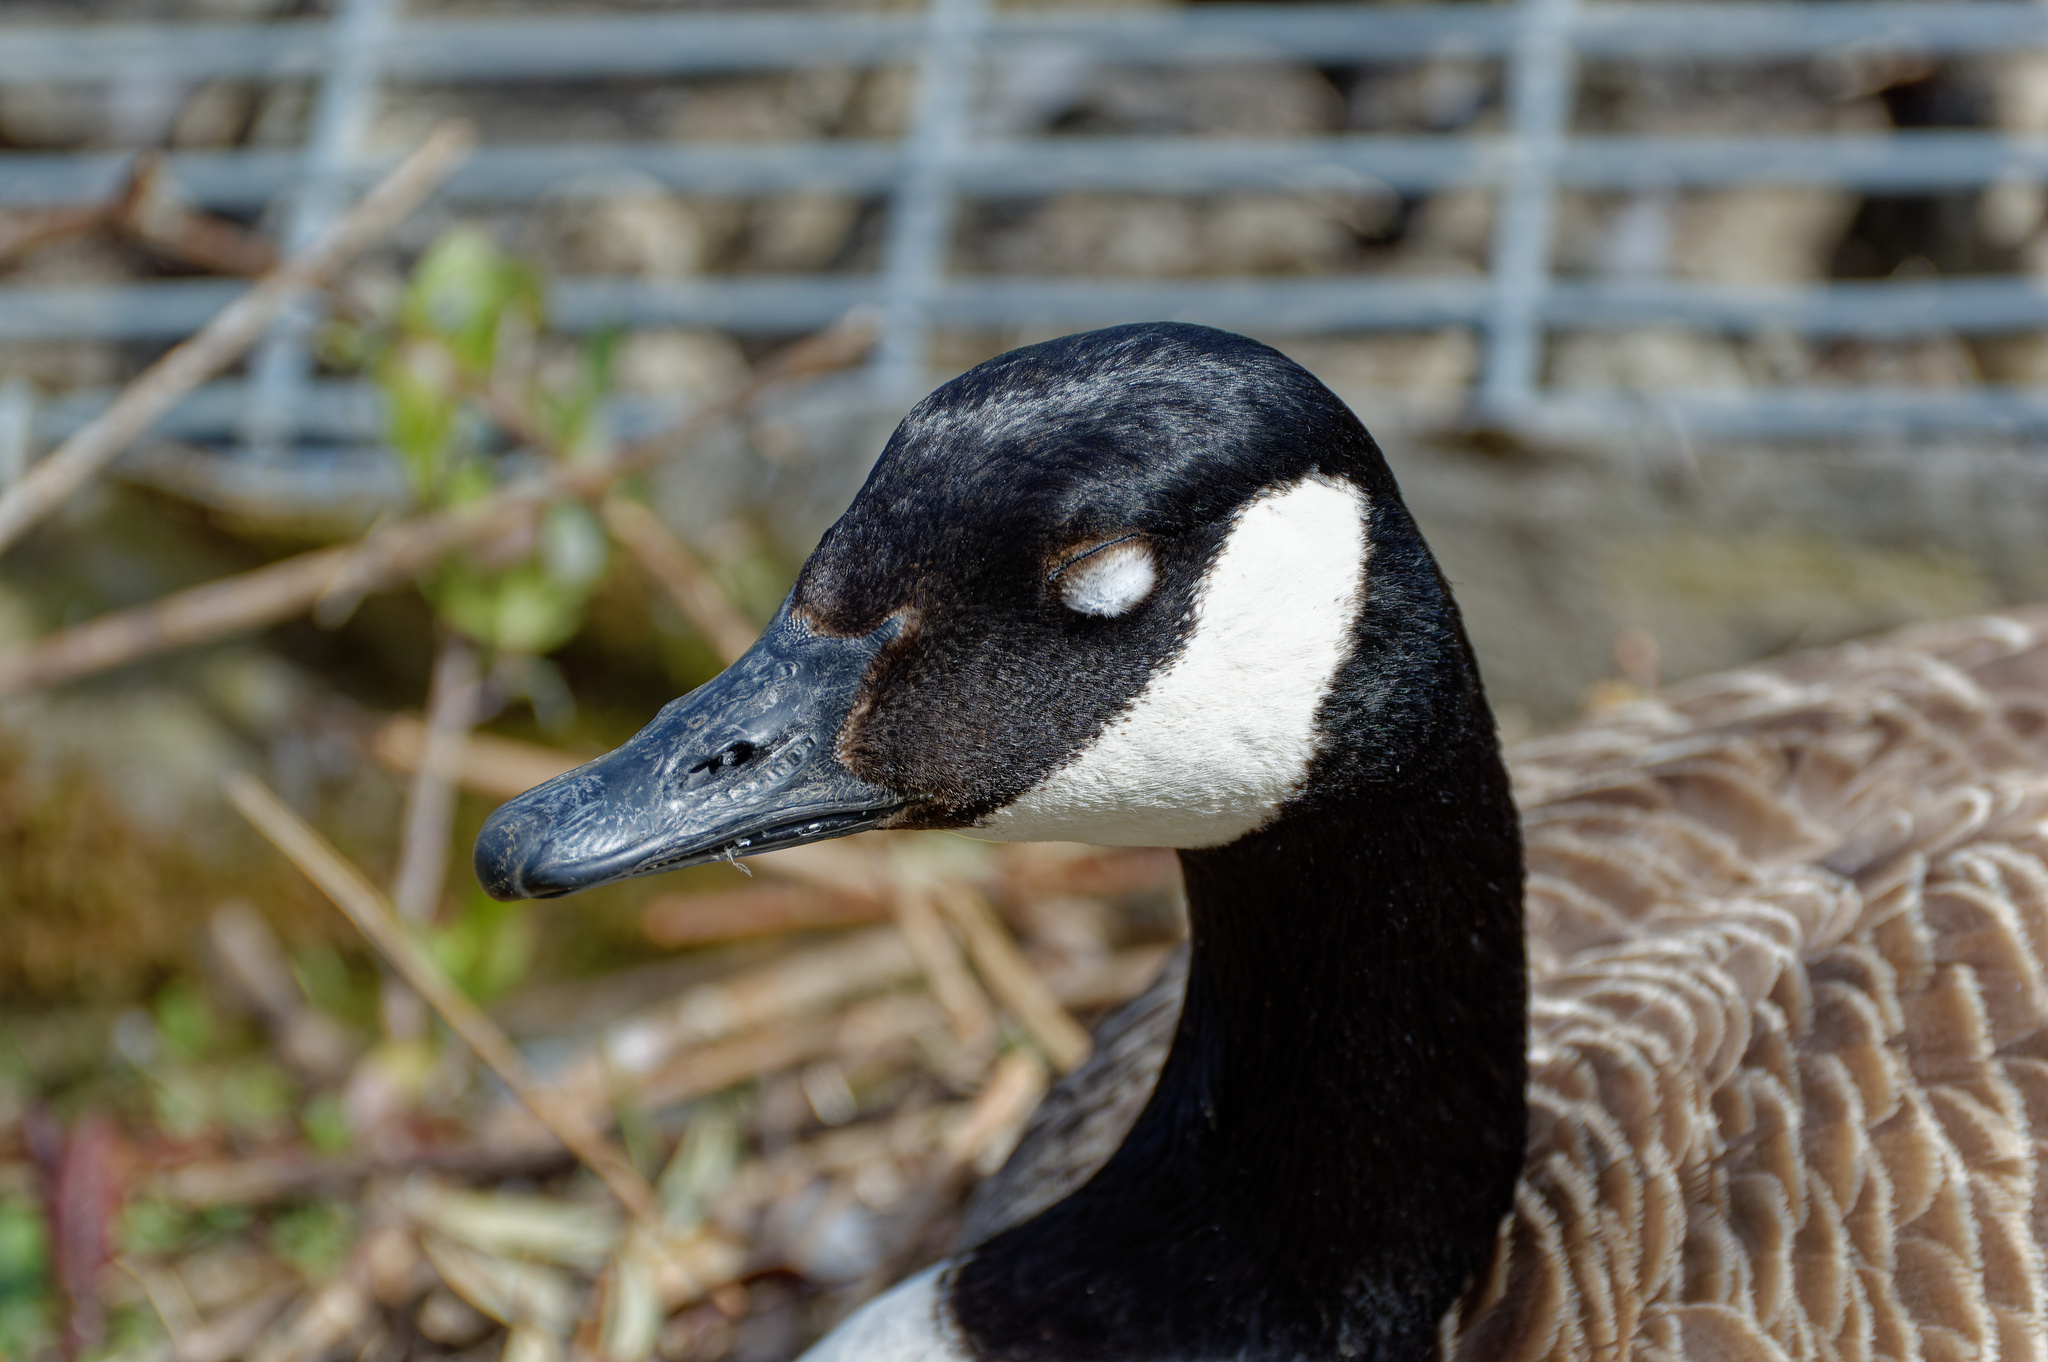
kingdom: Animalia
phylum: Chordata
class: Aves
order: Anseriformes
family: Anatidae
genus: Branta
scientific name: Branta canadensis
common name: Canada goose
